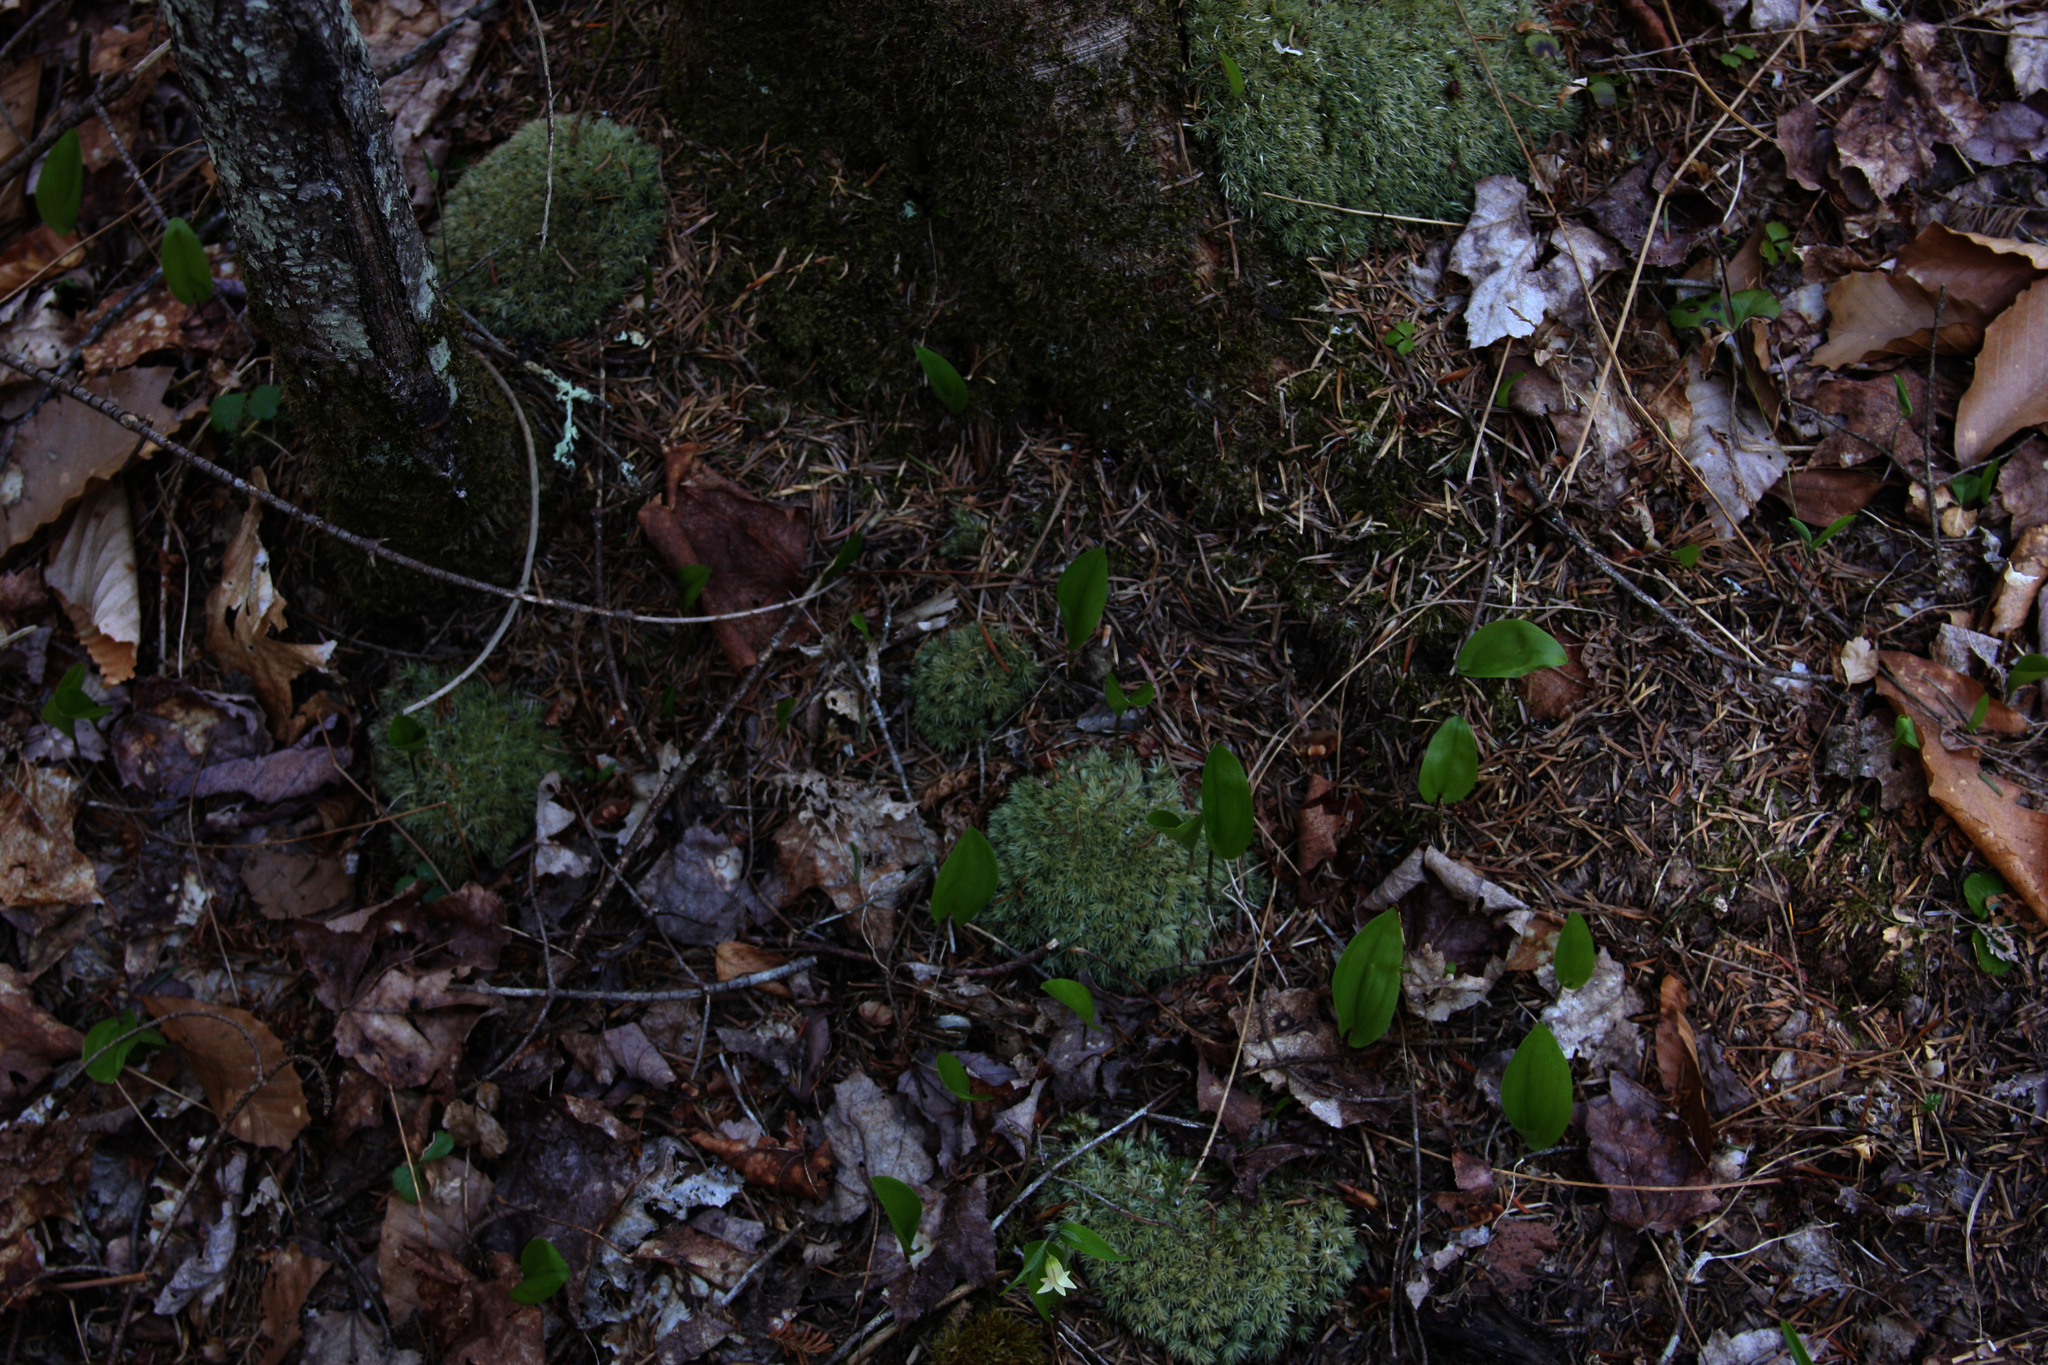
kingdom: Plantae
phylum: Tracheophyta
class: Liliopsida
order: Asparagales
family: Asparagaceae
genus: Maianthemum
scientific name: Maianthemum canadense
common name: False lily-of-the-valley
